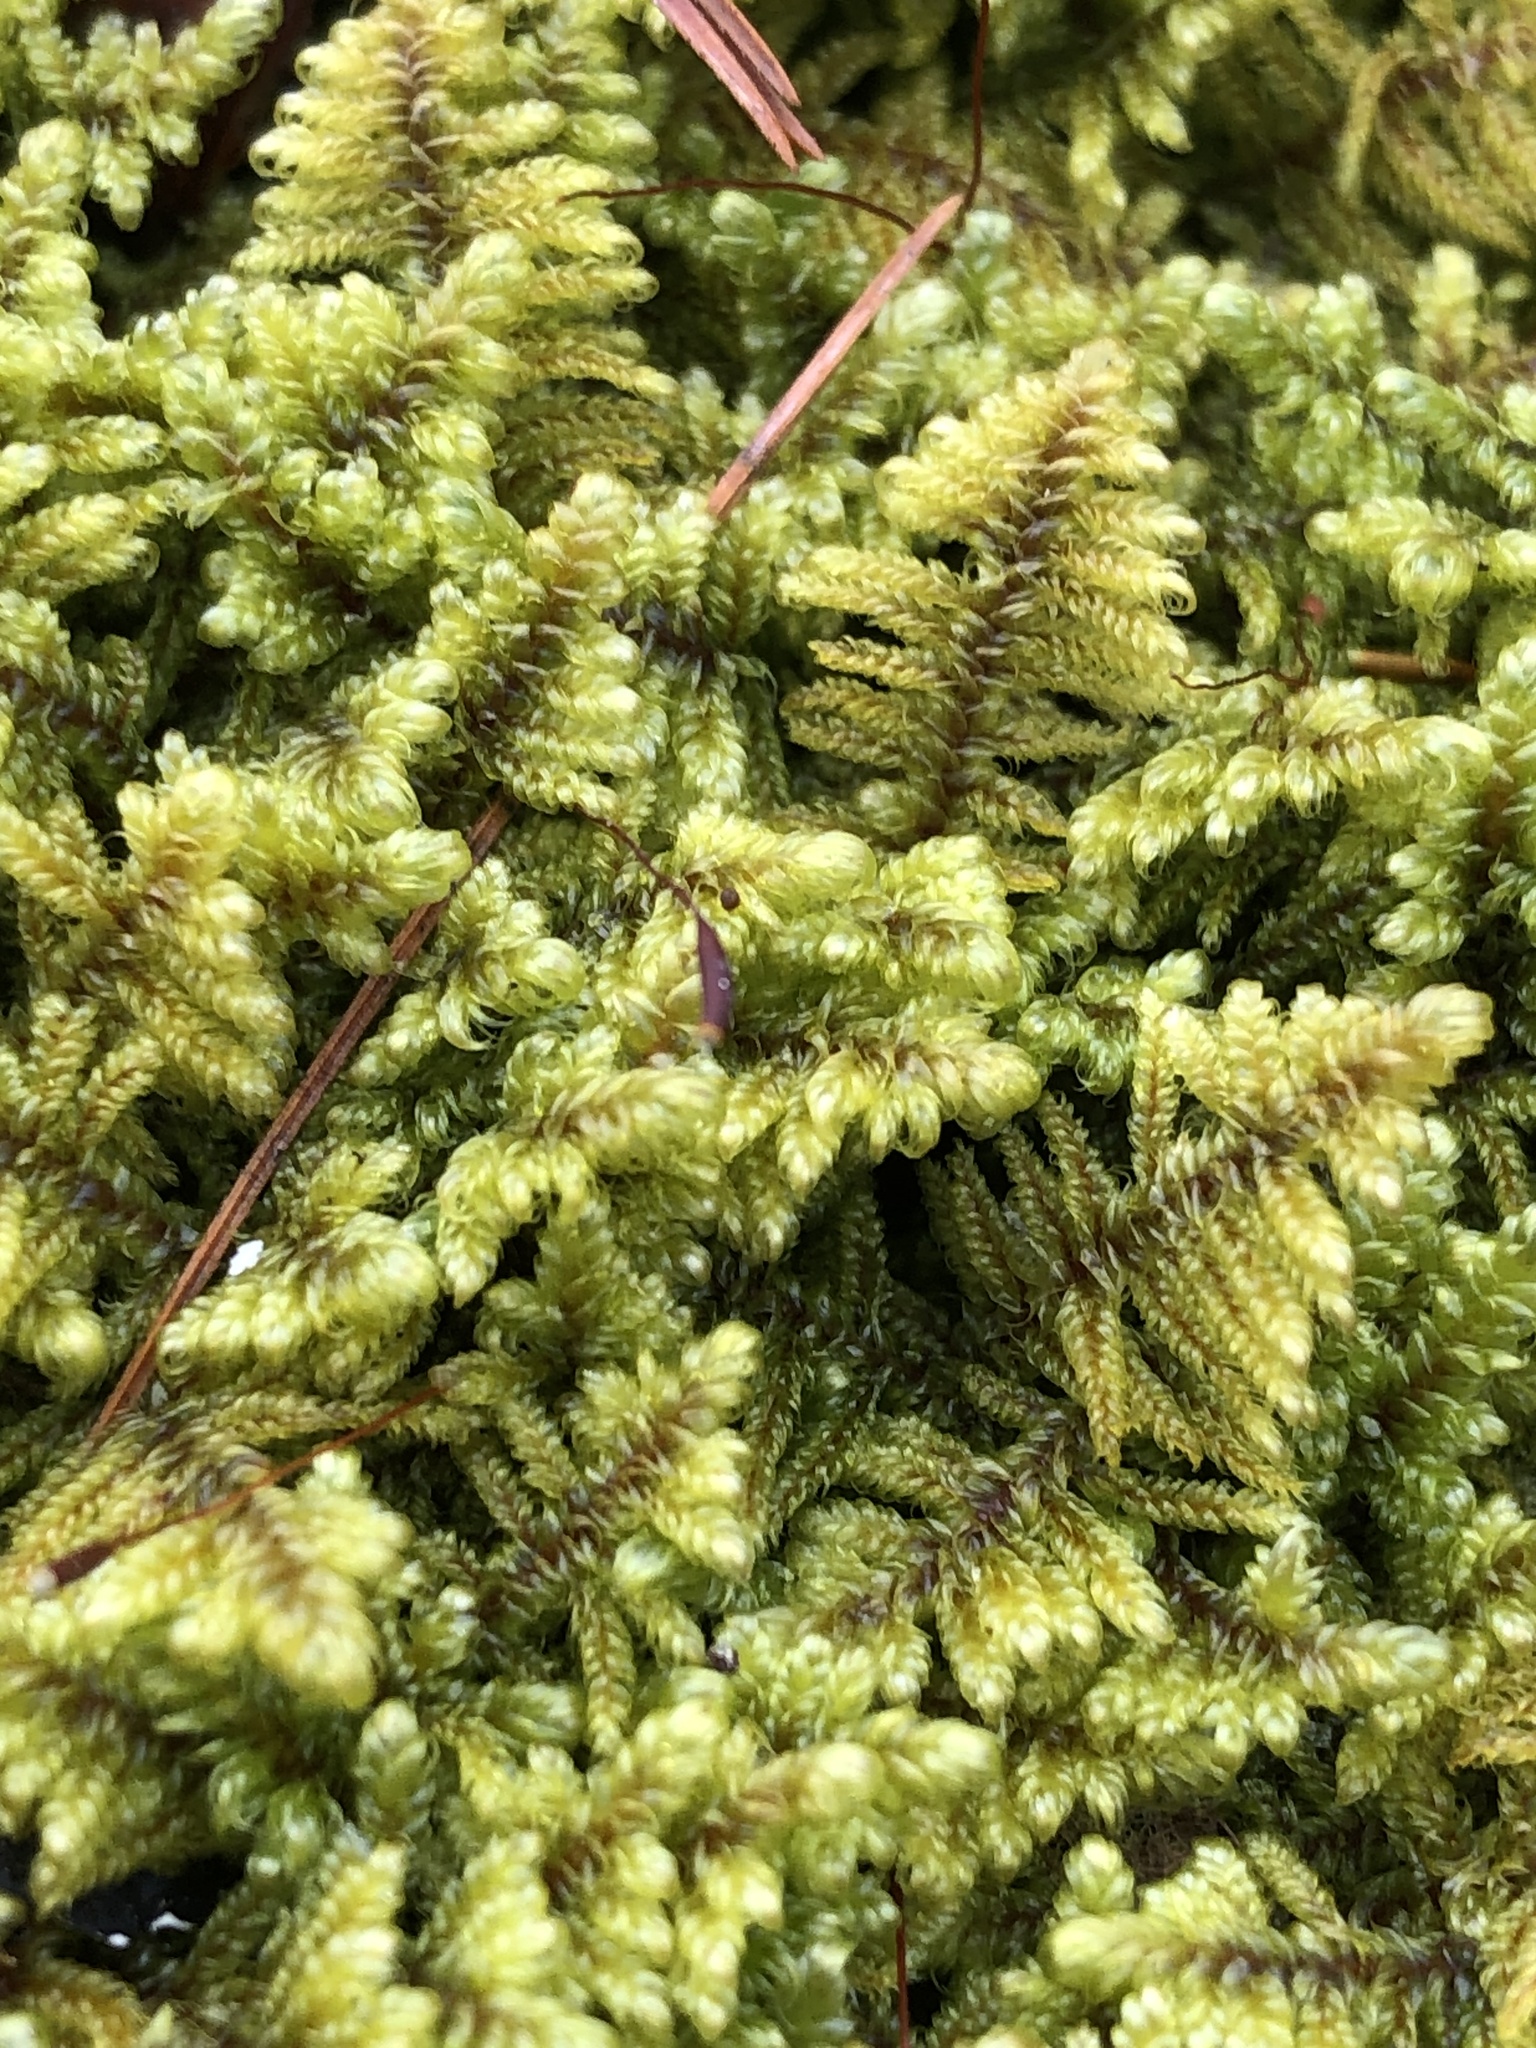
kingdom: Plantae
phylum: Bryophyta
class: Bryopsida
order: Hypnales
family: Callicladiaceae
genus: Callicladium
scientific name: Callicladium imponens
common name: Brocade moss
